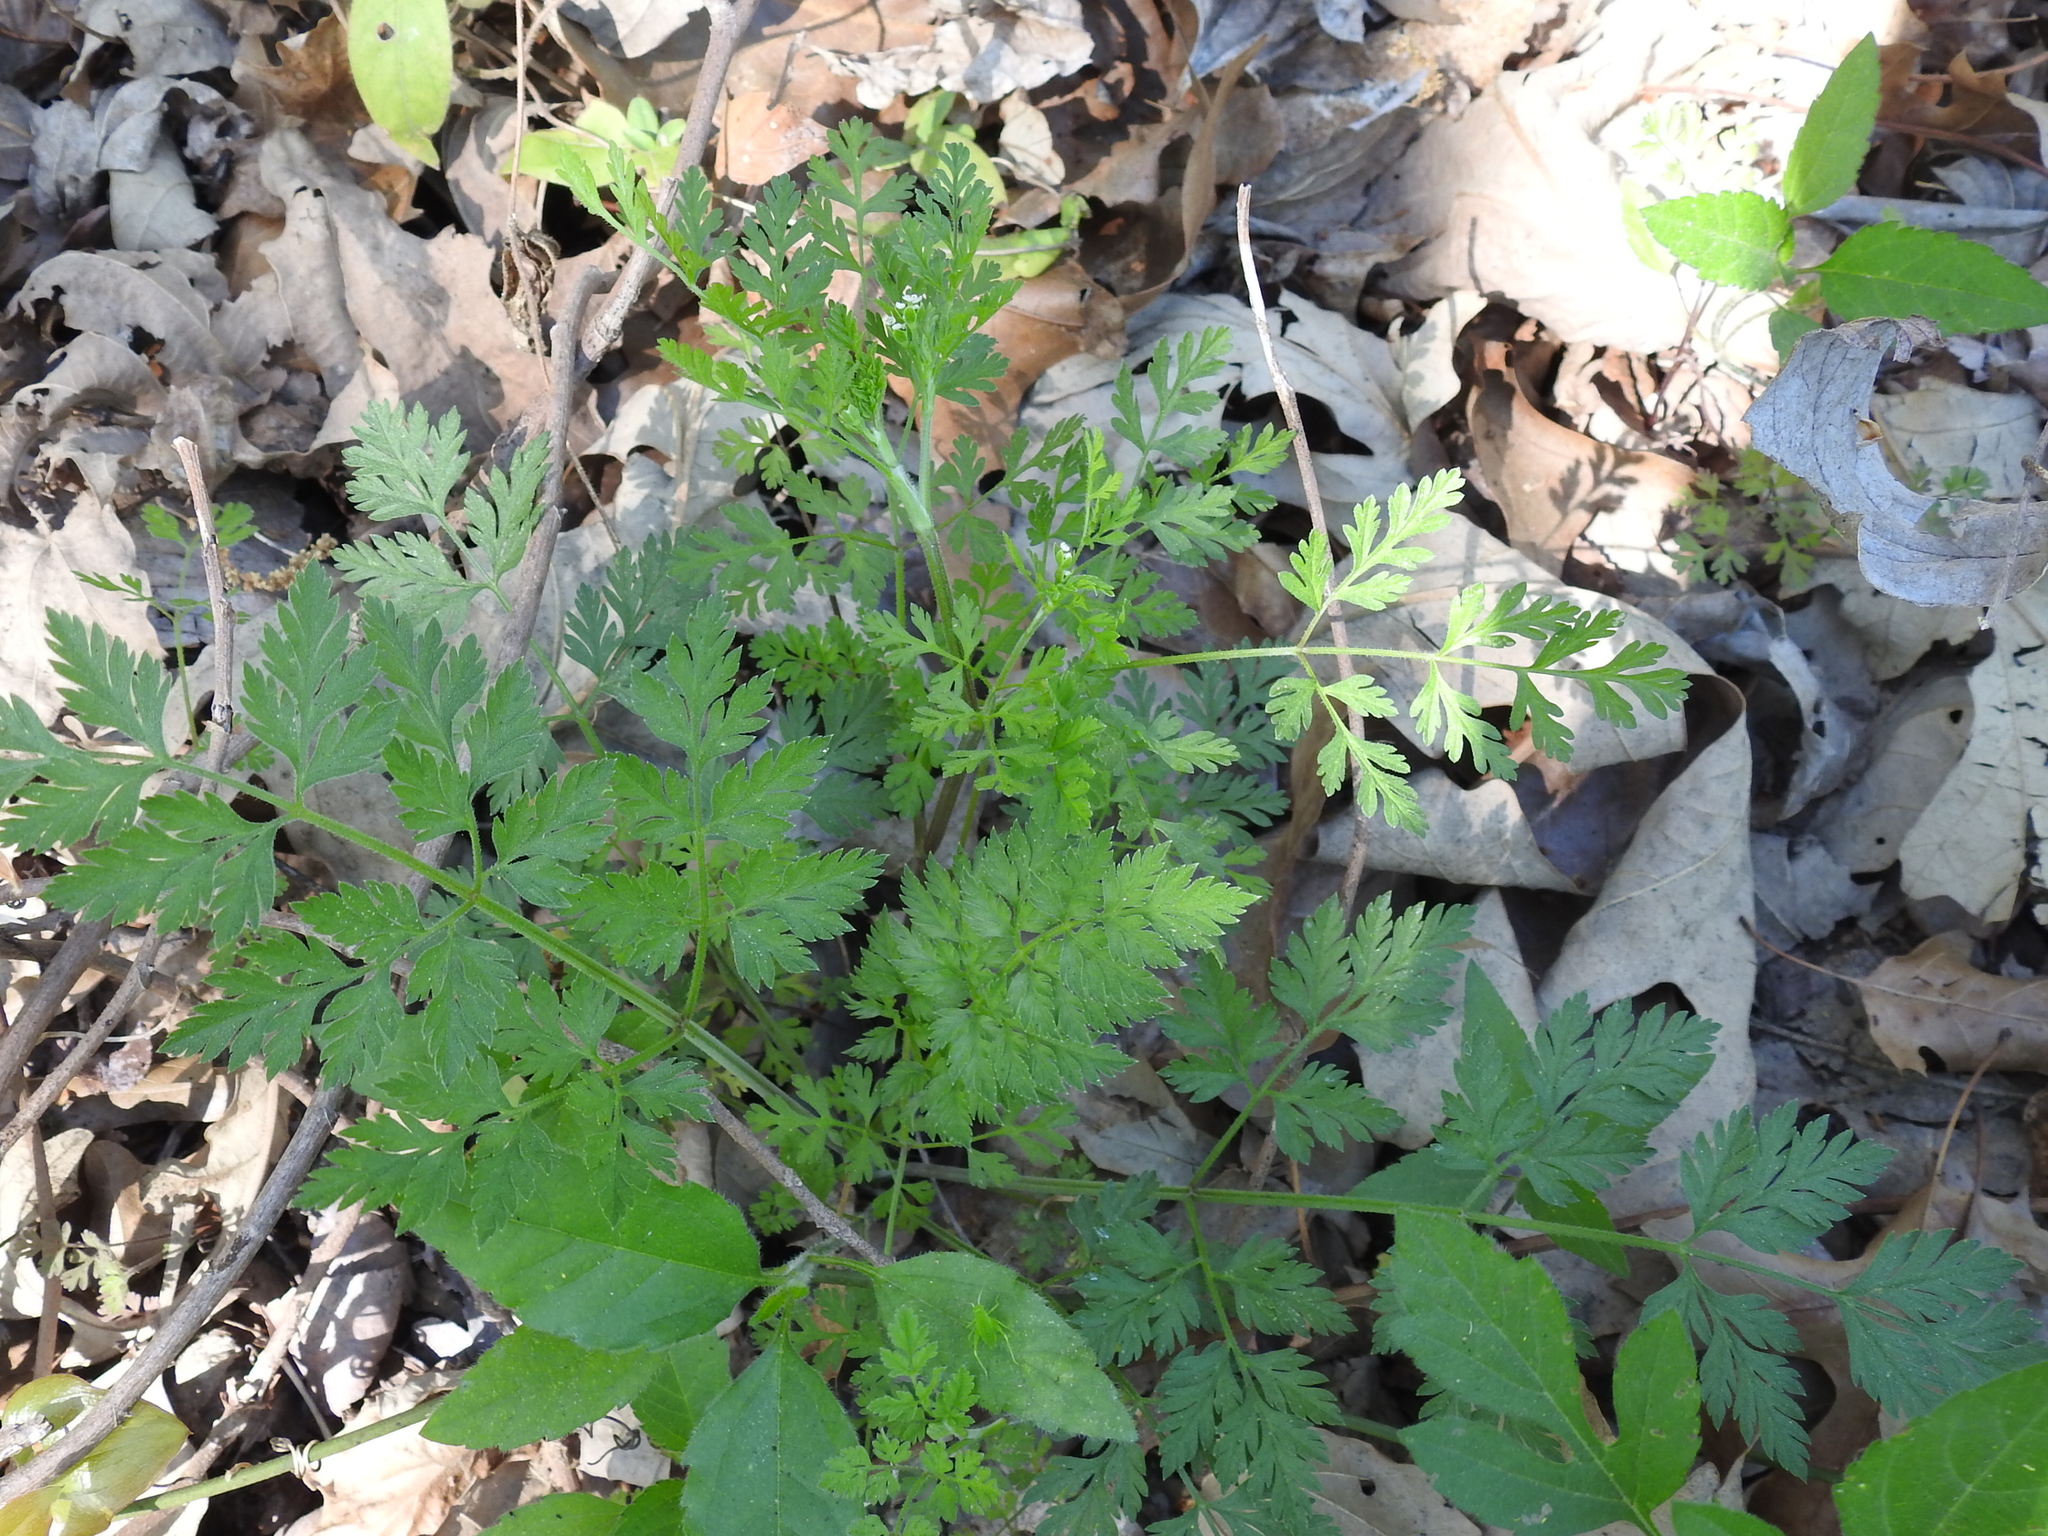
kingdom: Plantae
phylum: Tracheophyta
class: Magnoliopsida
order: Apiales
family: Apiaceae
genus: Chaerophyllum
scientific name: Chaerophyllum tainturieri
